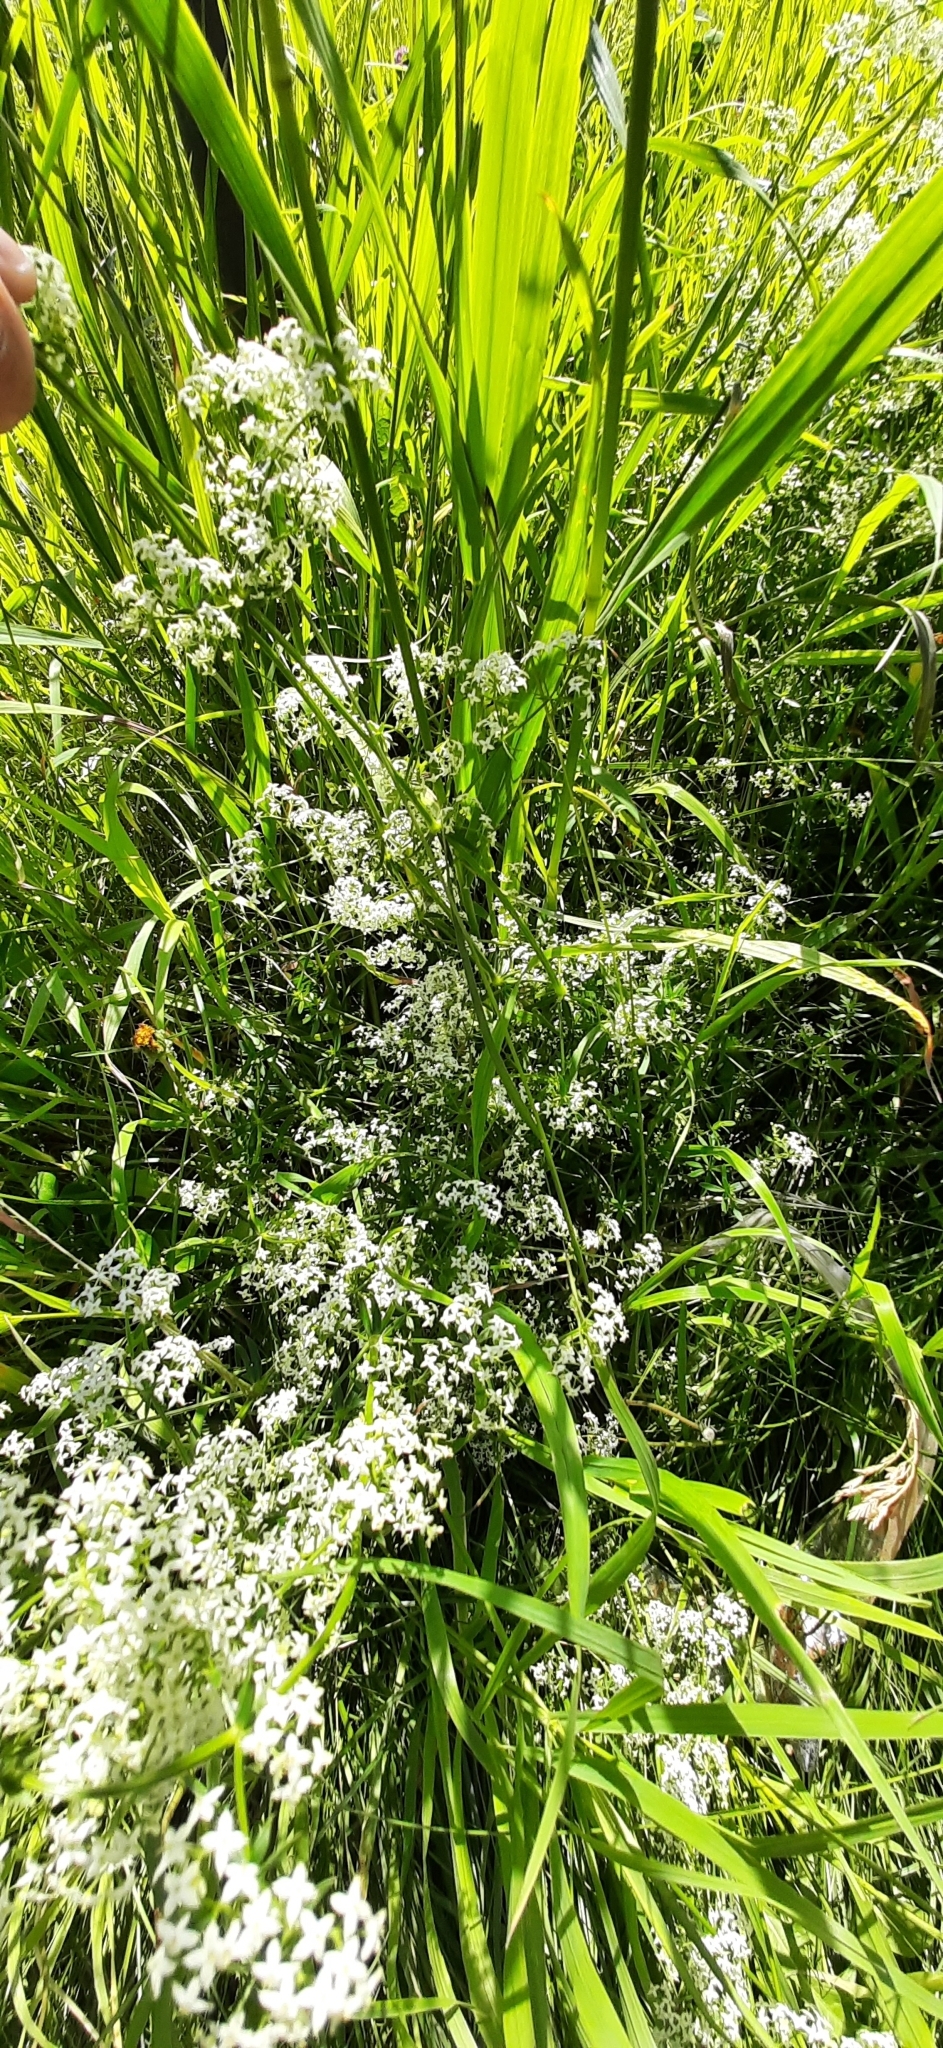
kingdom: Plantae
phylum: Tracheophyta
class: Magnoliopsida
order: Gentianales
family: Rubiaceae
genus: Galium
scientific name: Galium mollugo
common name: Hedge bedstraw
